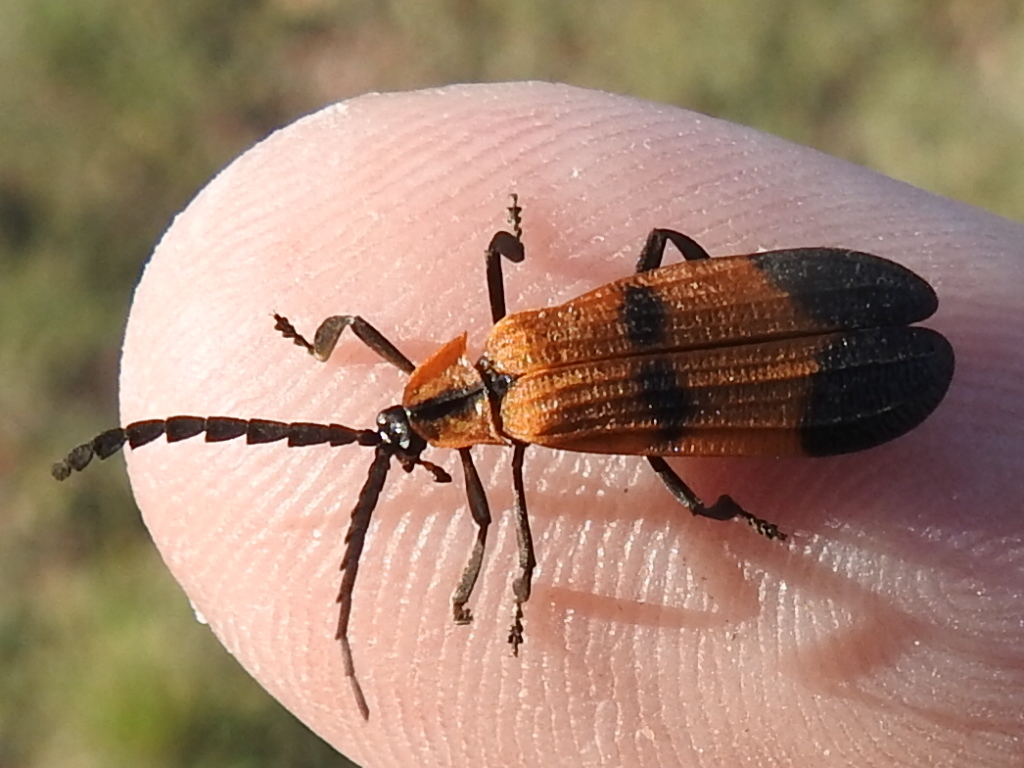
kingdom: Animalia
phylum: Arthropoda
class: Insecta
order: Coleoptera
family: Lycidae
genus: Calopteron
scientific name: Calopteron reticulatum
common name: Banded net-winged beetle
